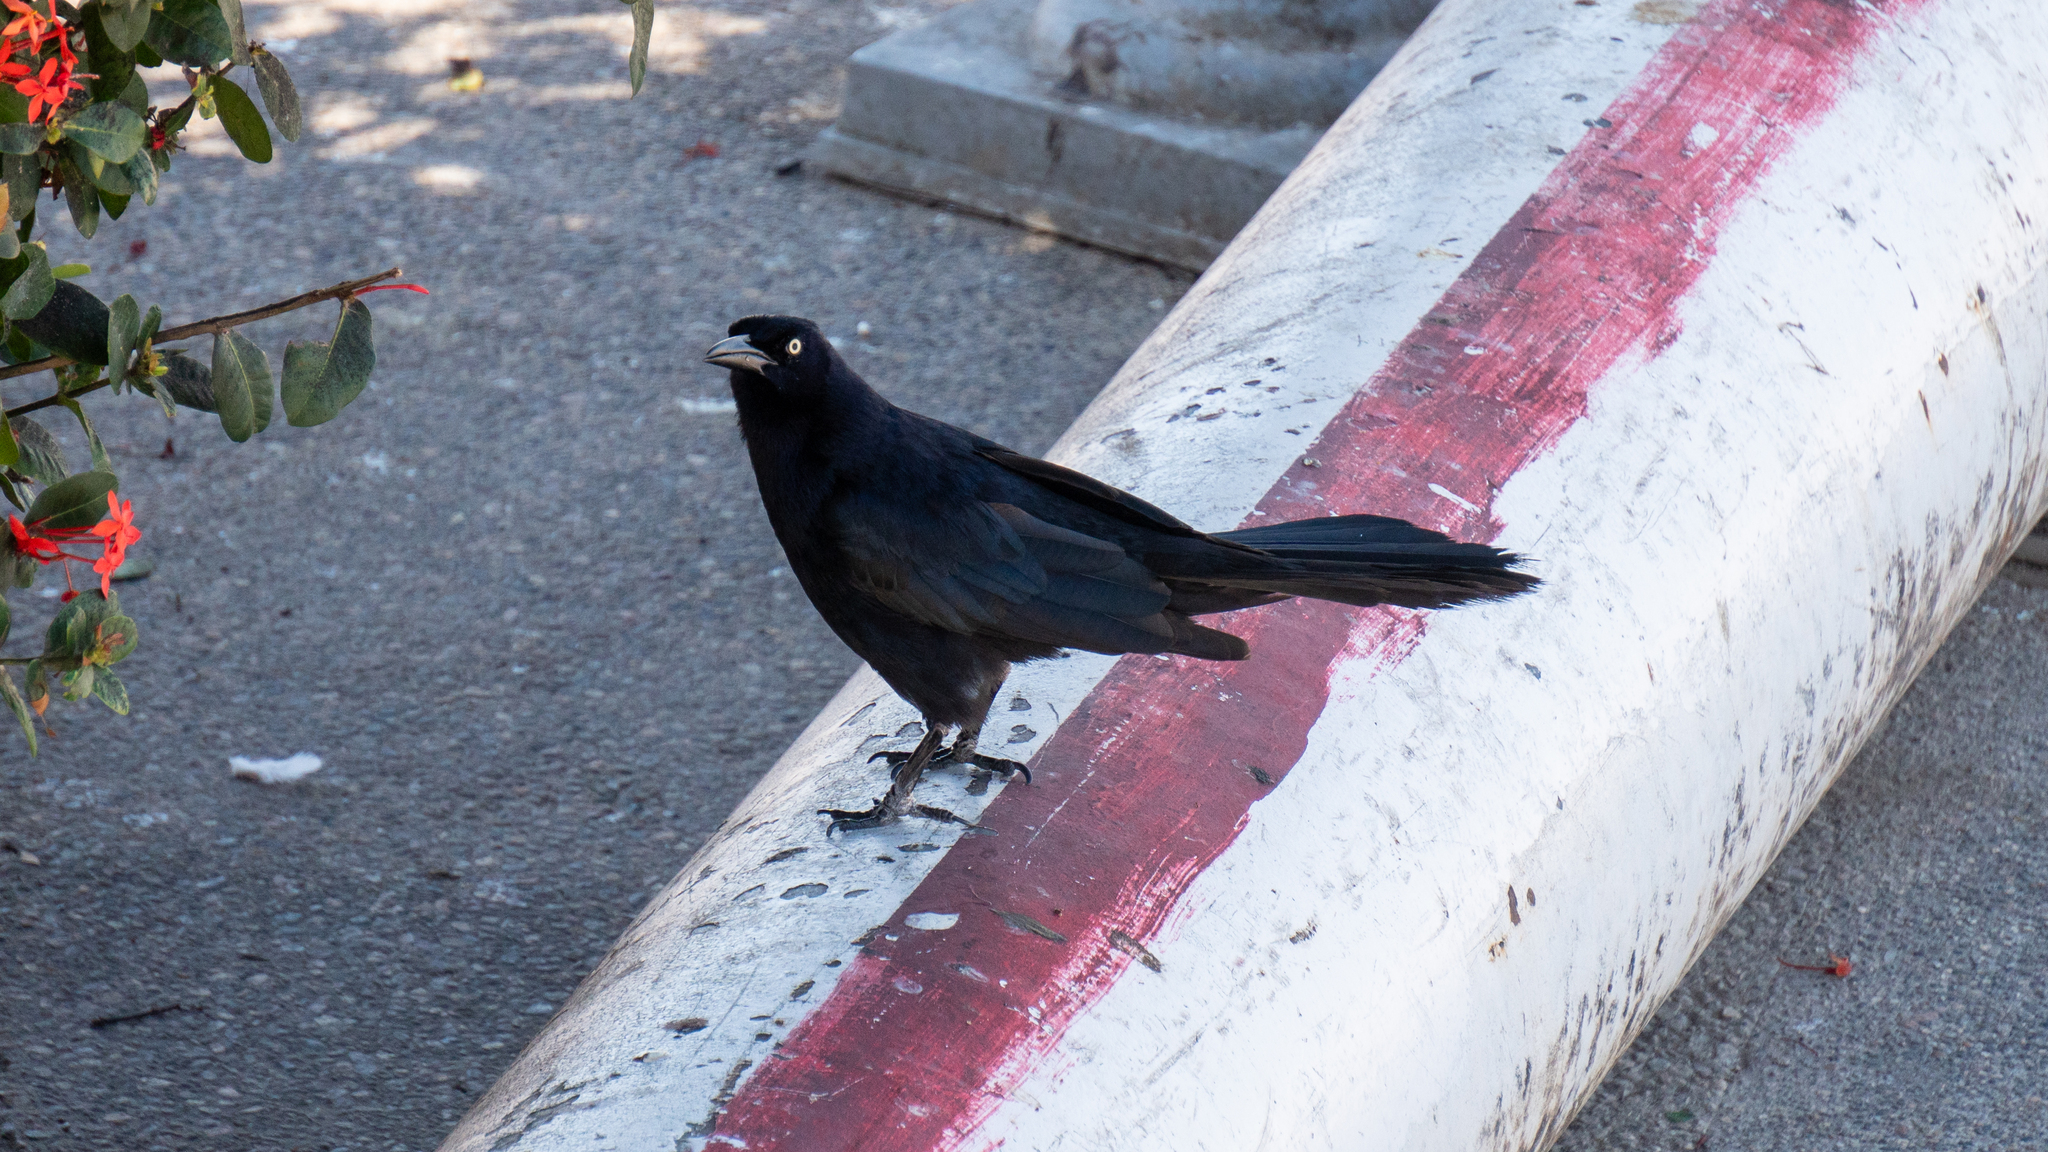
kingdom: Animalia
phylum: Chordata
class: Aves
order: Passeriformes
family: Icteridae
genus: Quiscalus
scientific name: Quiscalus mexicanus
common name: Great-tailed grackle
